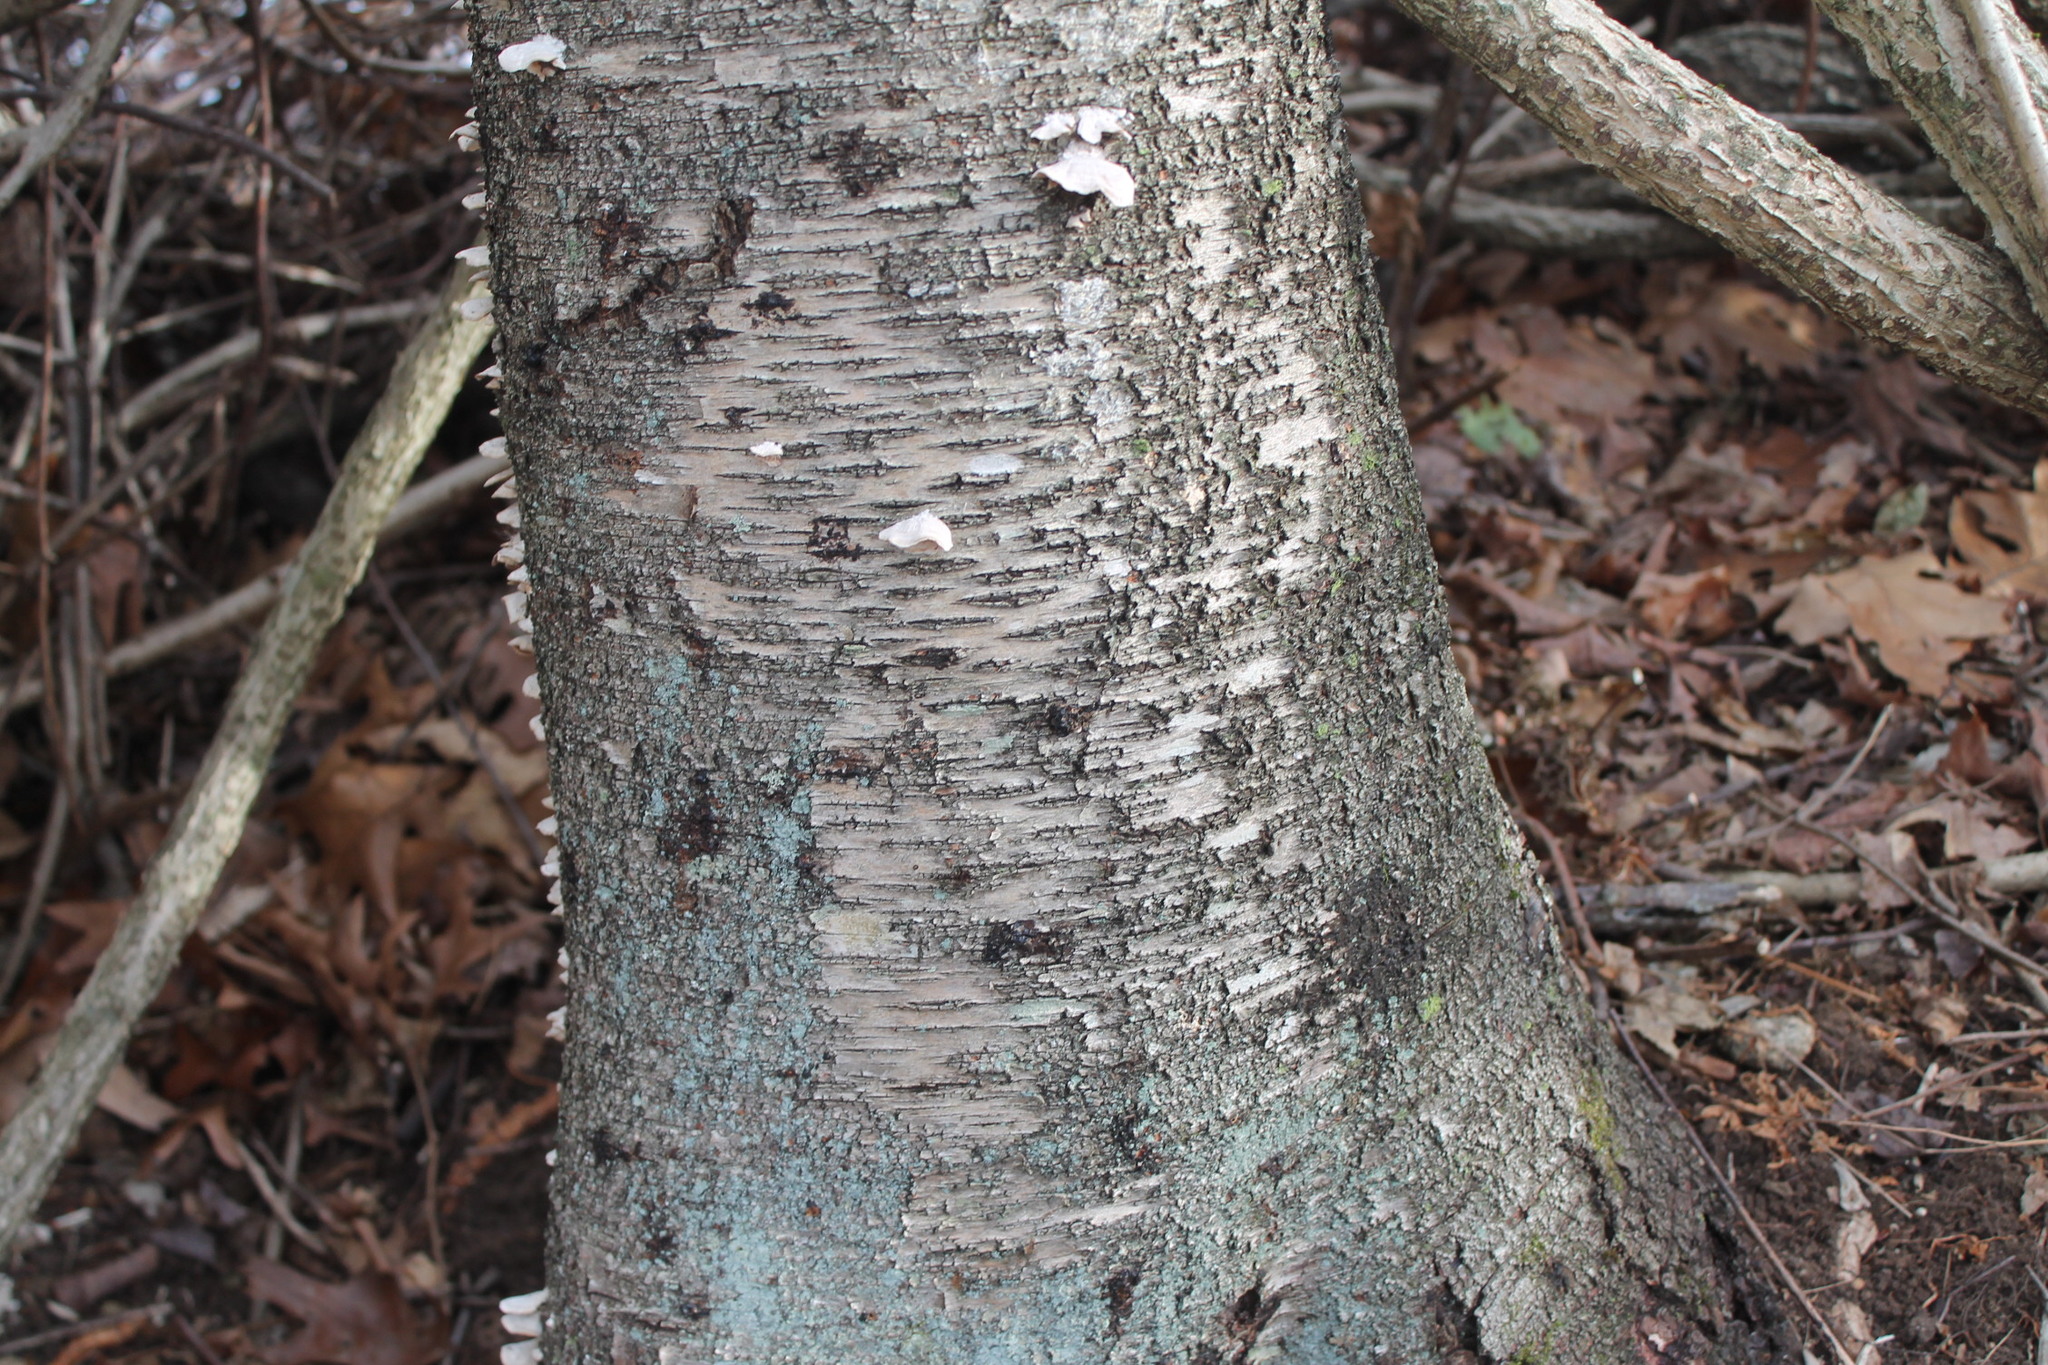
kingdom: Plantae
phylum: Tracheophyta
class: Magnoliopsida
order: Fagales
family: Betulaceae
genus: Betula
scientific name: Betula populifolia
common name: Fire birch
